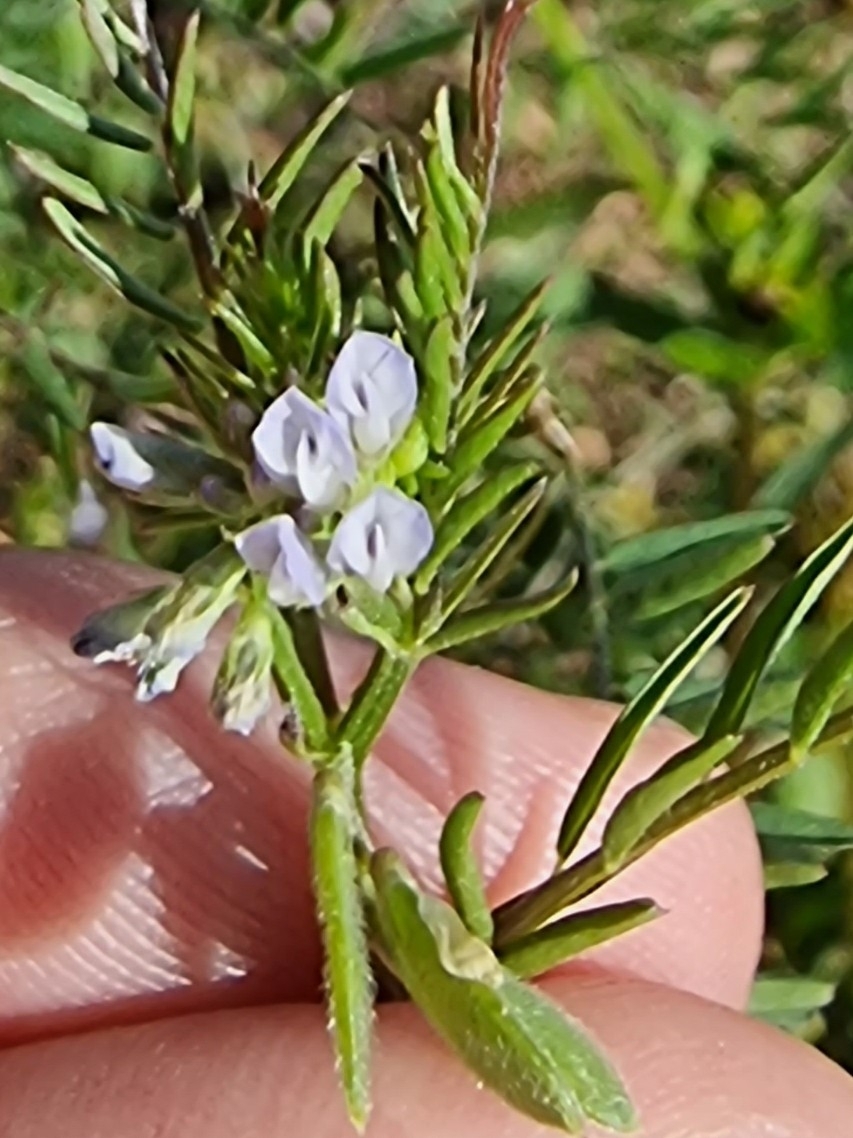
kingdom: Plantae
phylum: Tracheophyta
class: Magnoliopsida
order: Fabales
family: Fabaceae
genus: Vicia
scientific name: Vicia hirsuta
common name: Tiny vetch
